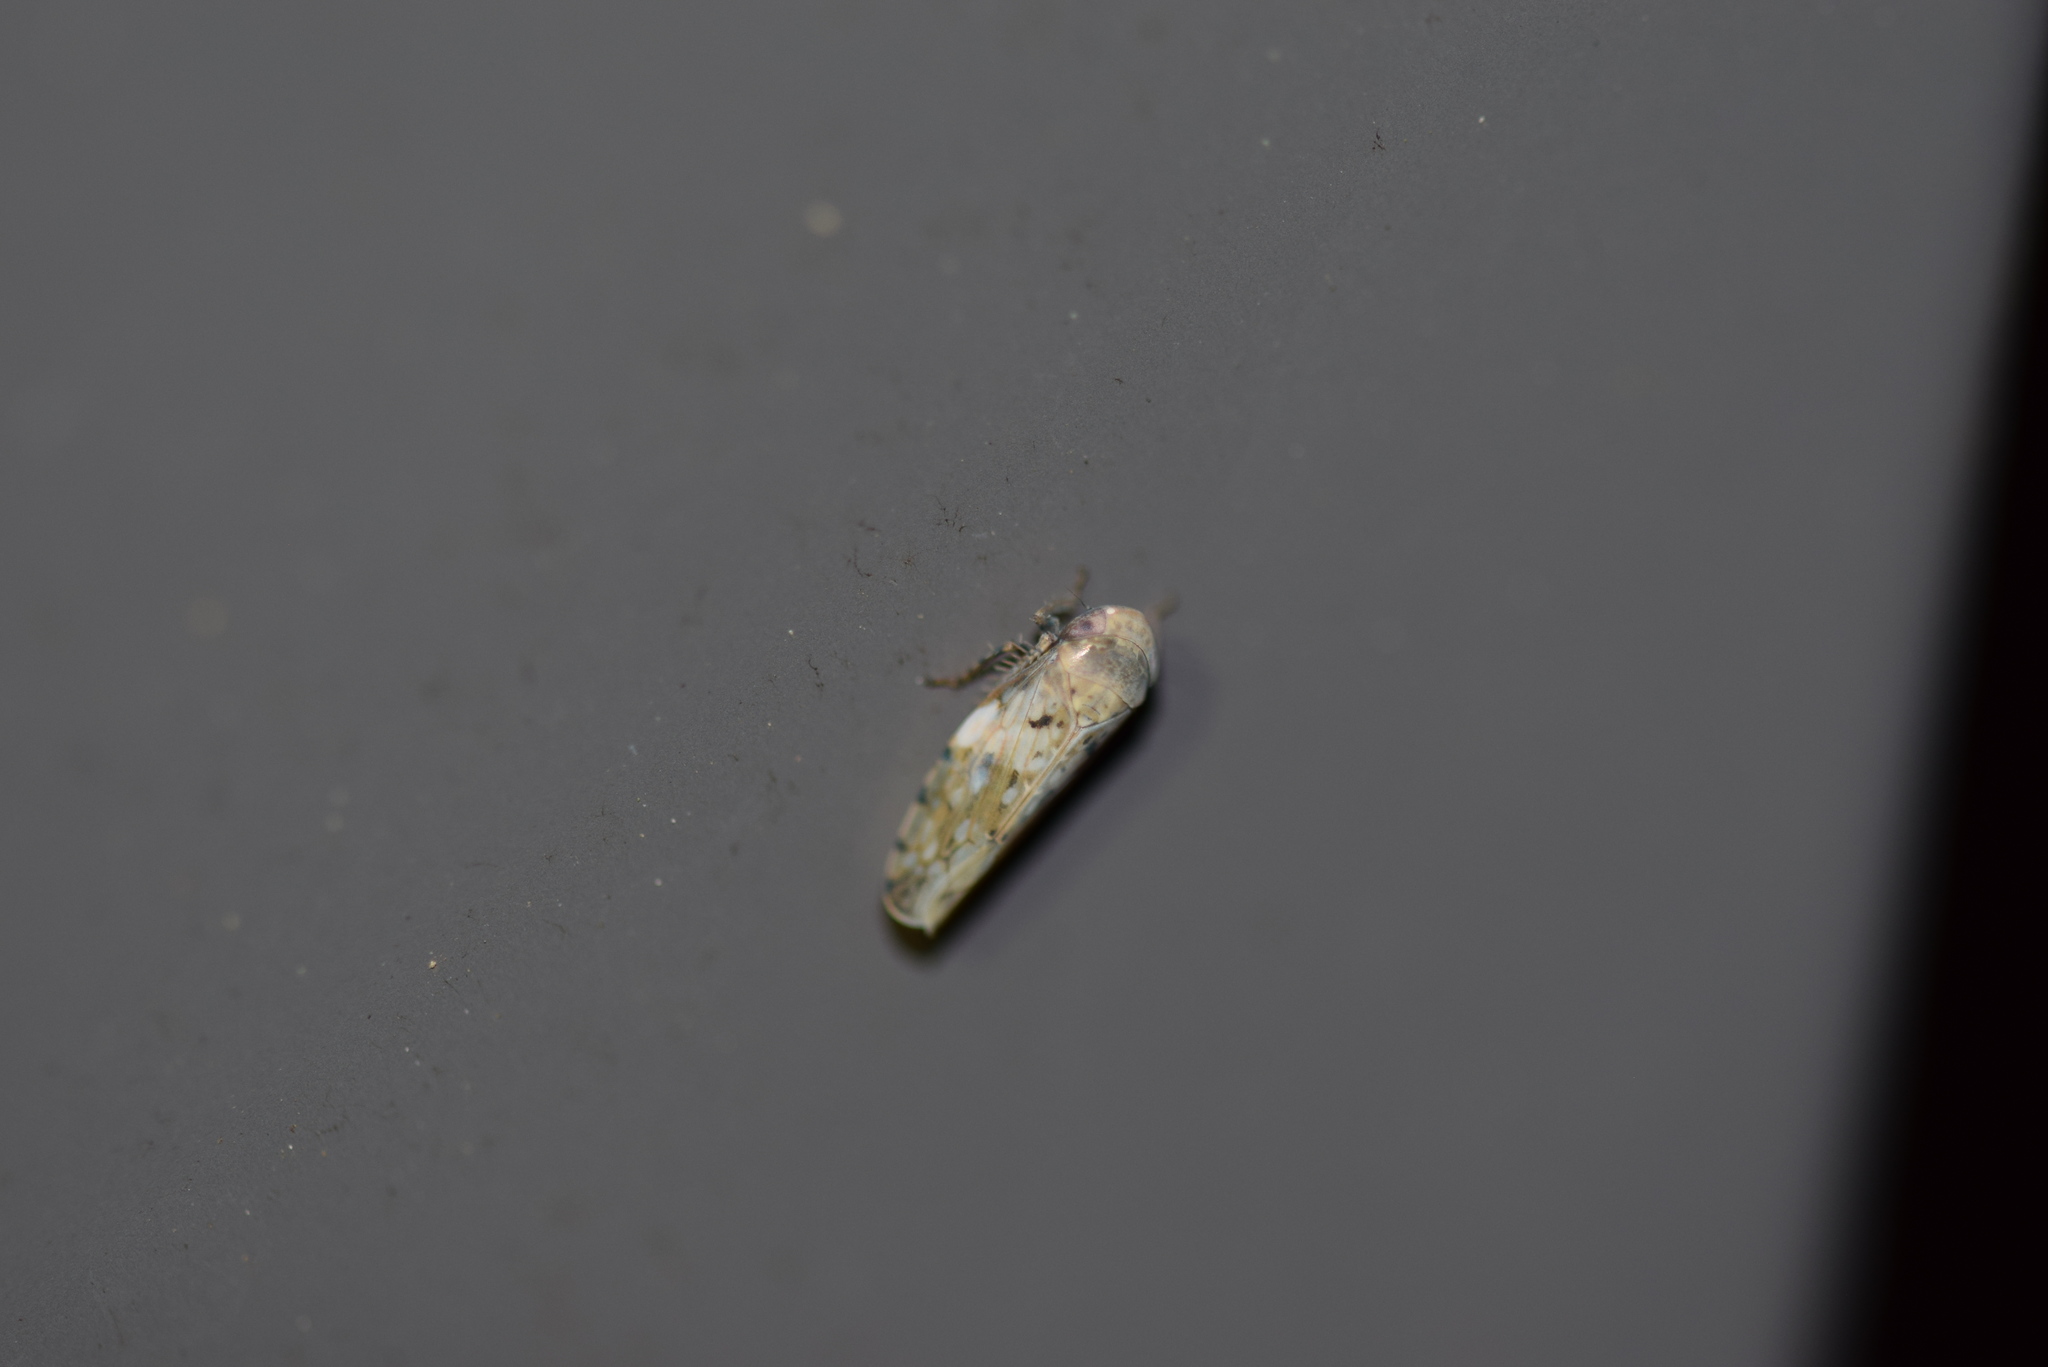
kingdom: Animalia
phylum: Arthropoda
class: Insecta
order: Hemiptera
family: Cicadellidae
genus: Menosoma
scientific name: Menosoma cinctum
